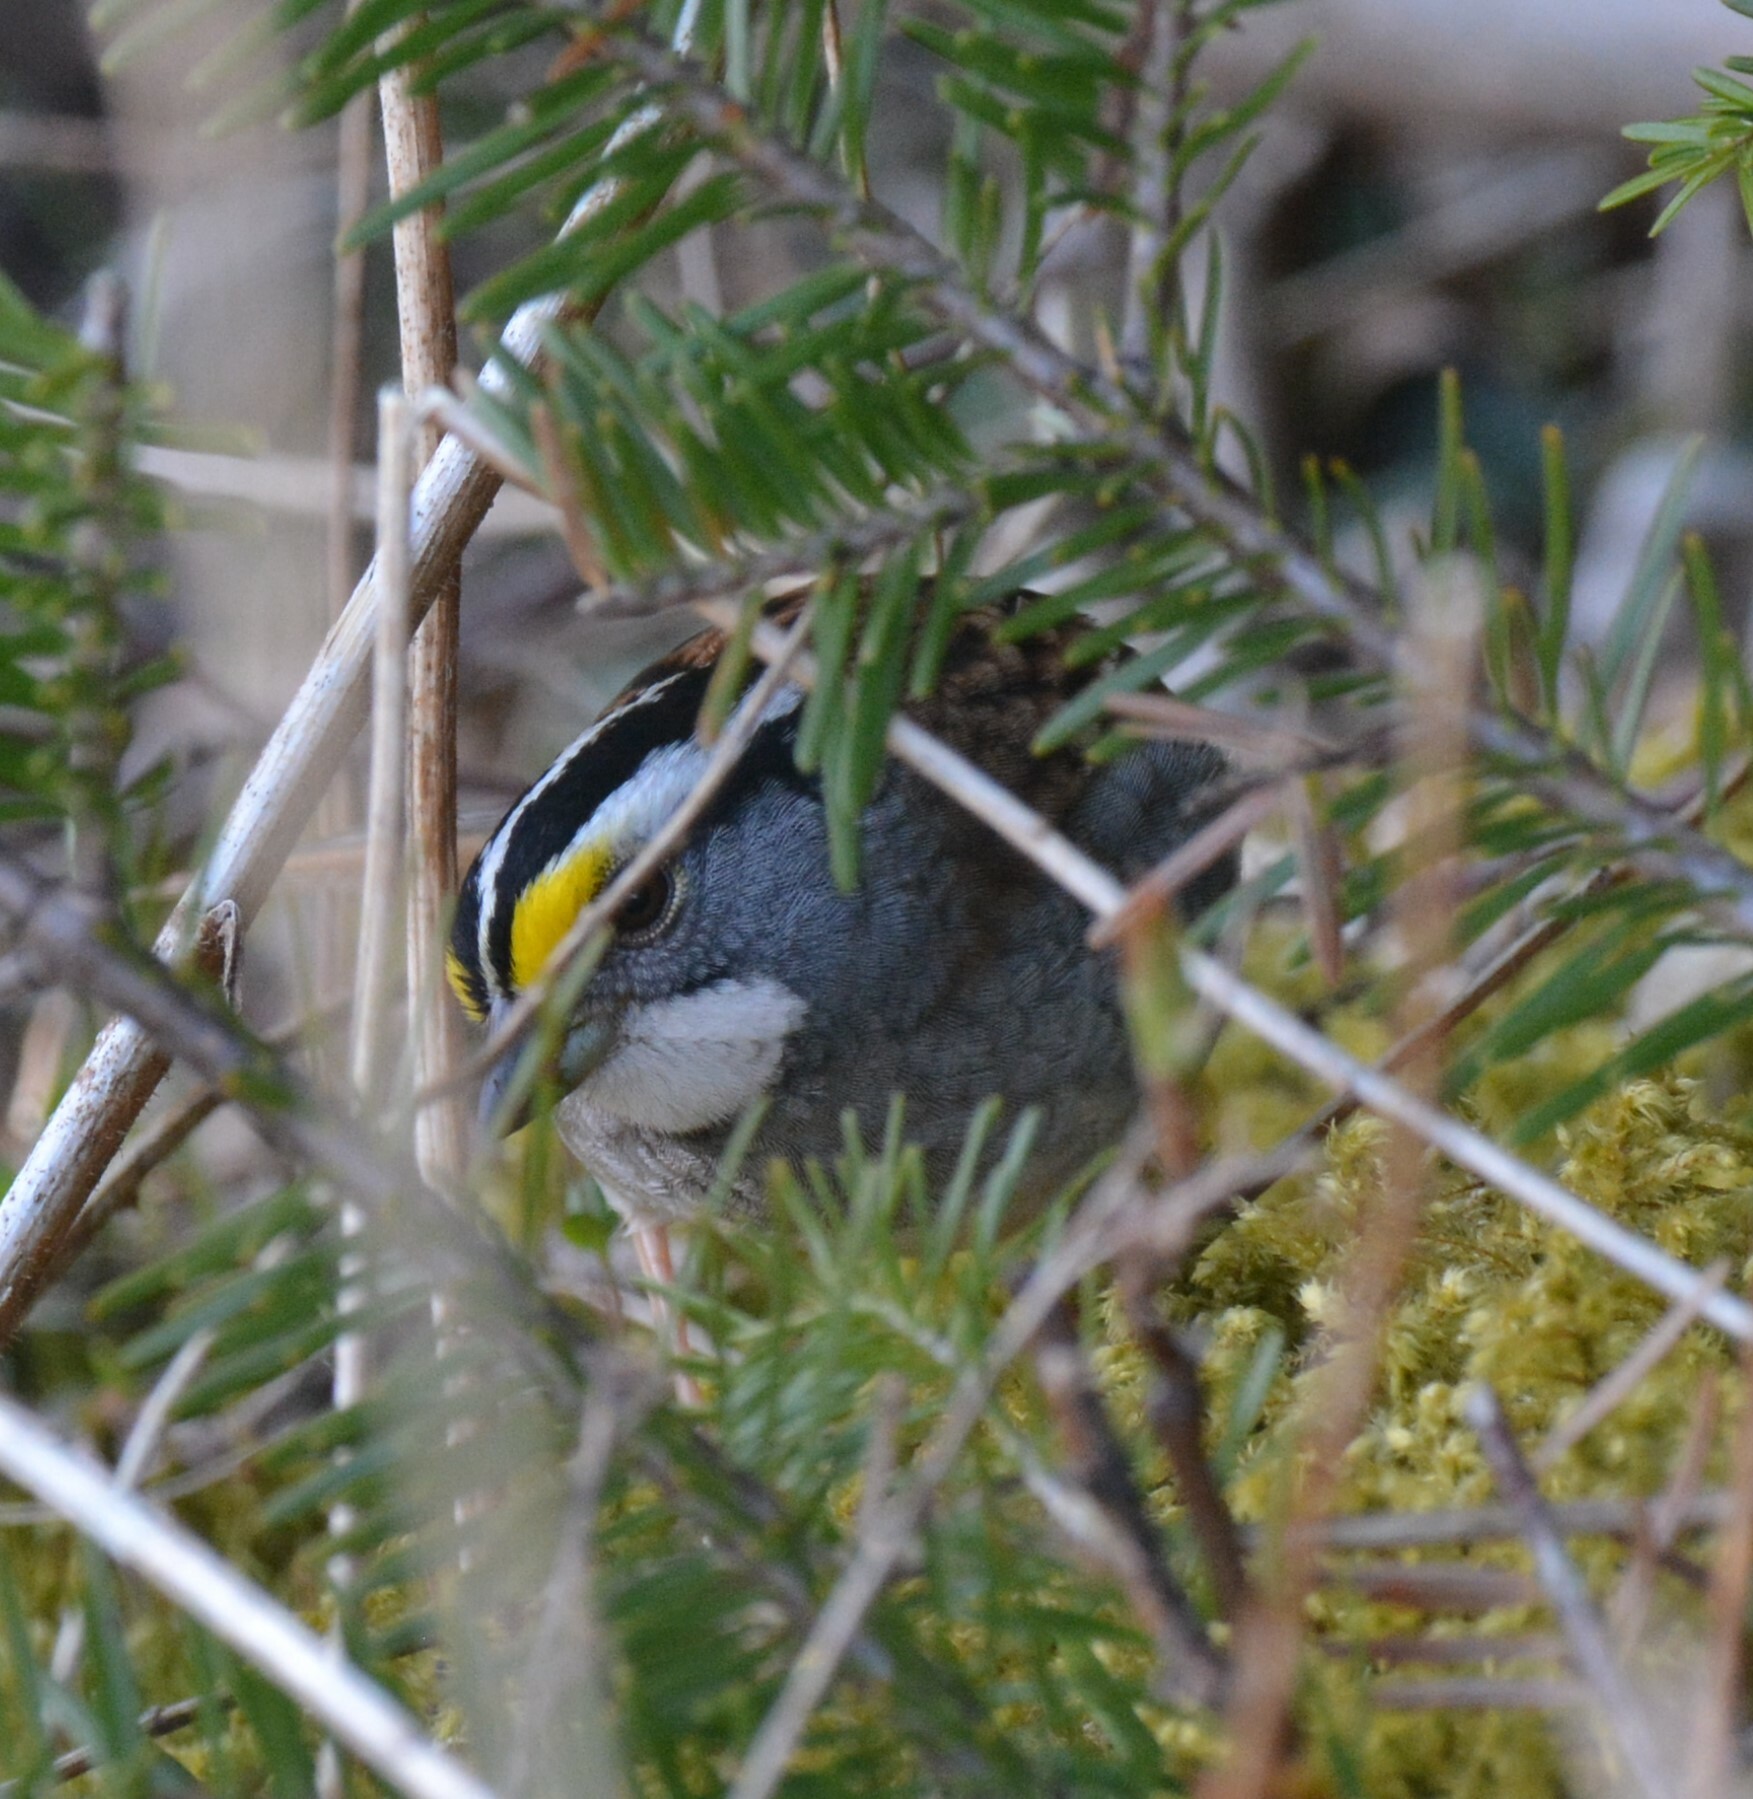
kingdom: Animalia
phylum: Chordata
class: Aves
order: Passeriformes
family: Passerellidae
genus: Zonotrichia
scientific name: Zonotrichia albicollis
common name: White-throated sparrow
